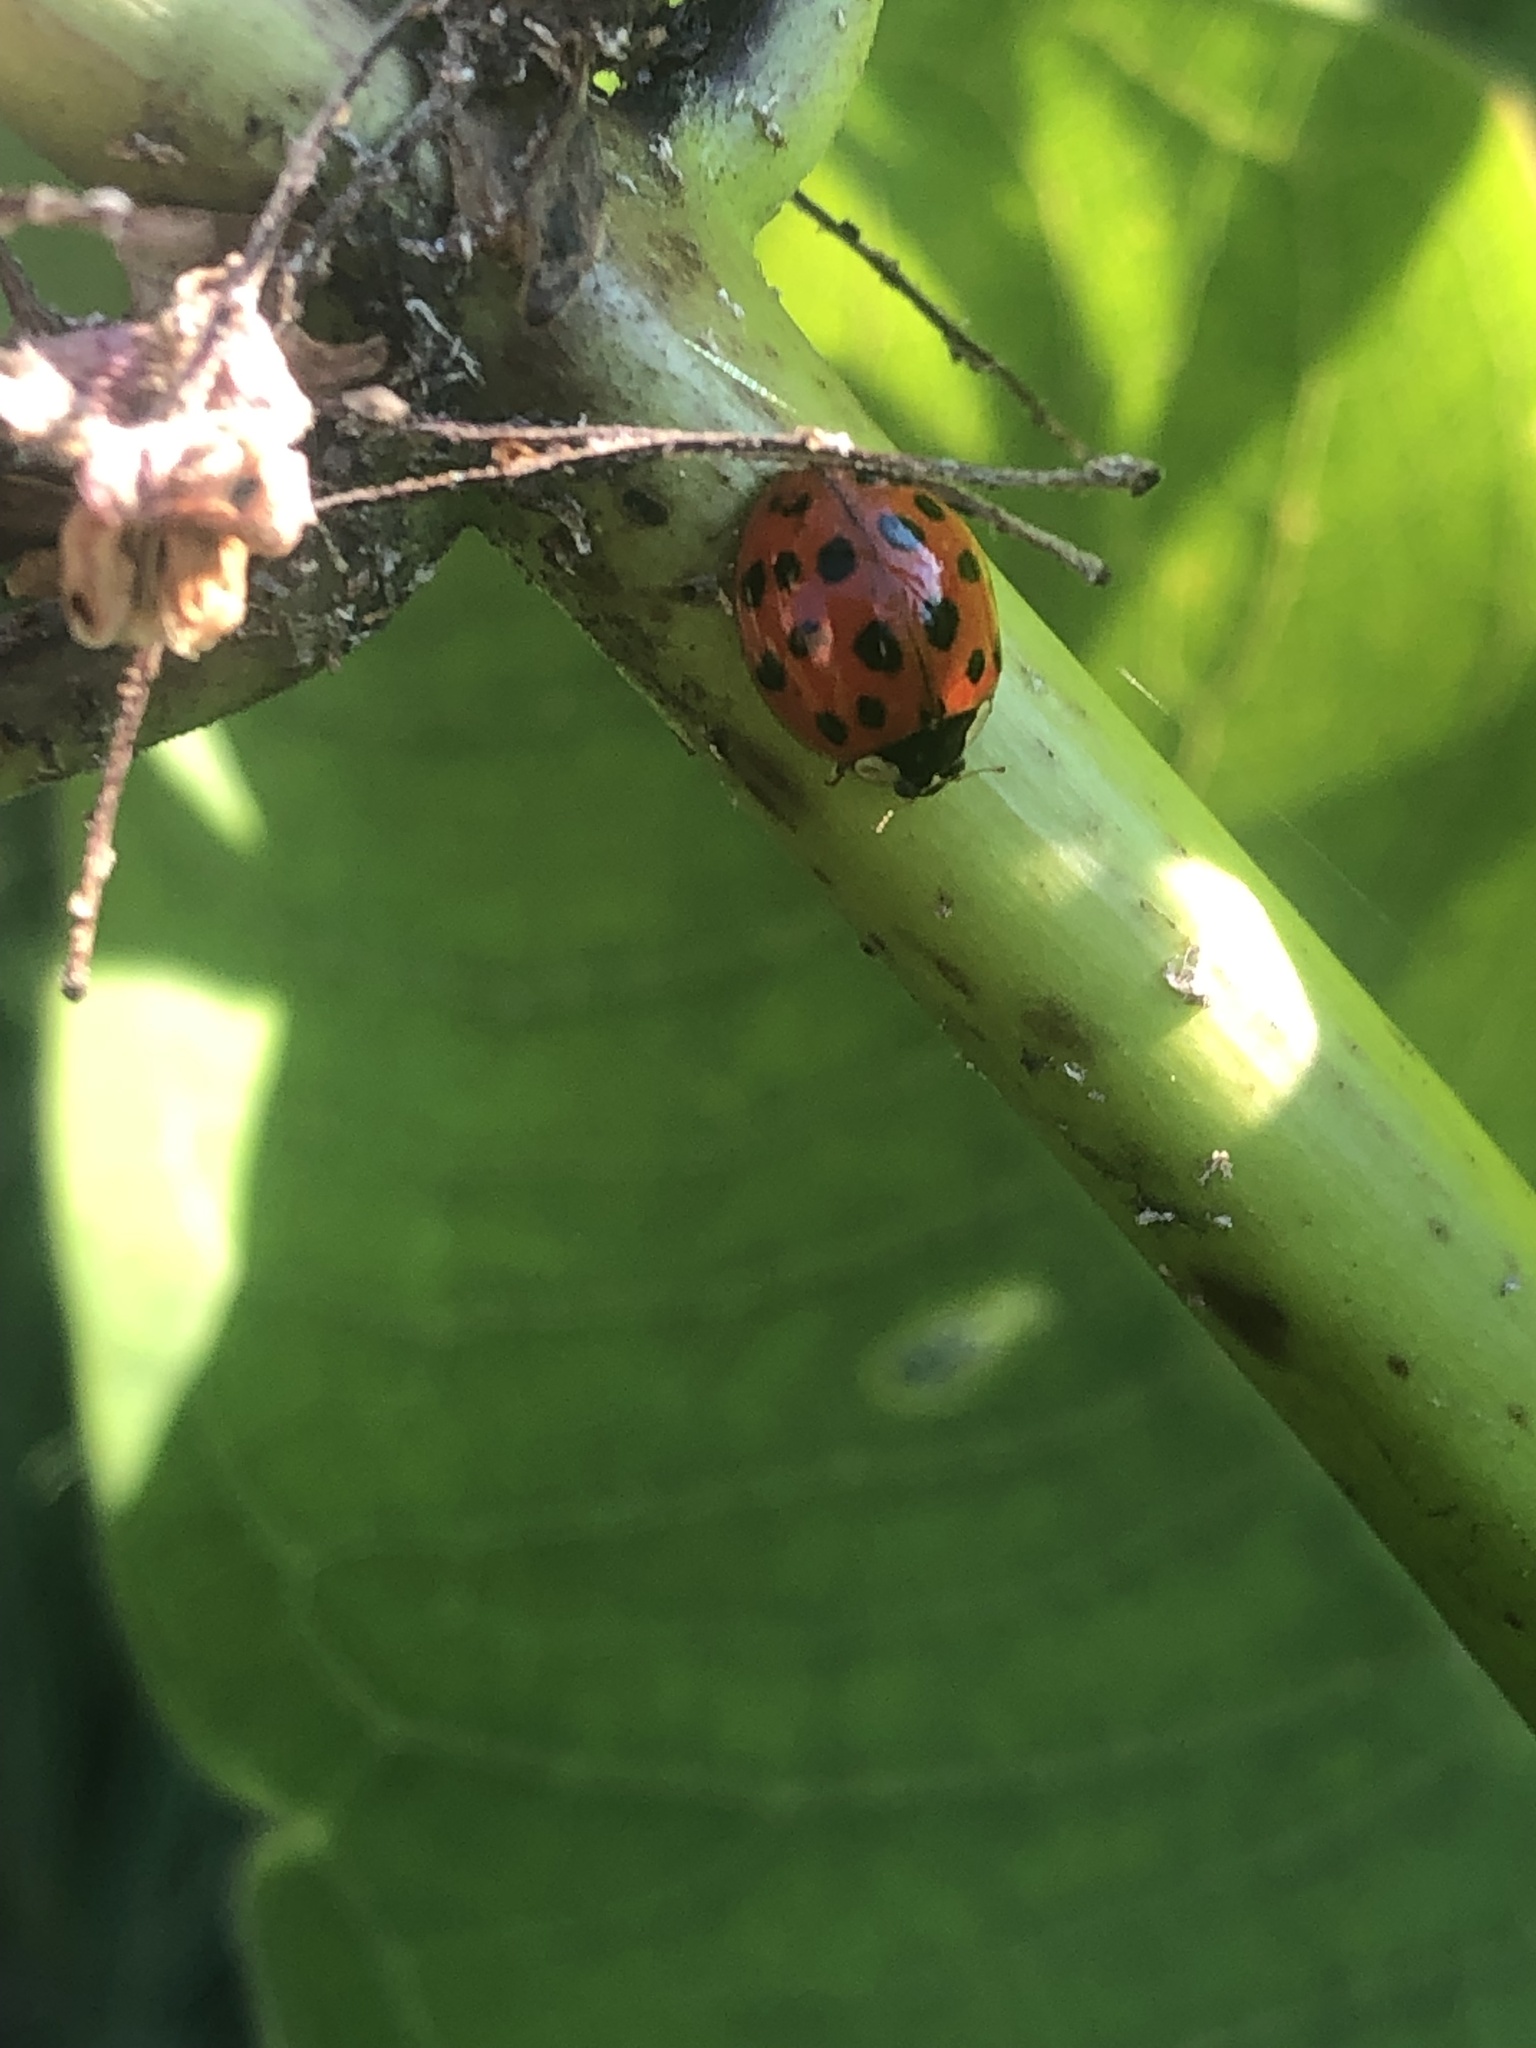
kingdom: Animalia
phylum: Arthropoda
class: Insecta
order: Coleoptera
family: Coccinellidae
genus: Harmonia
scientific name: Harmonia axyridis
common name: Harlequin ladybird
